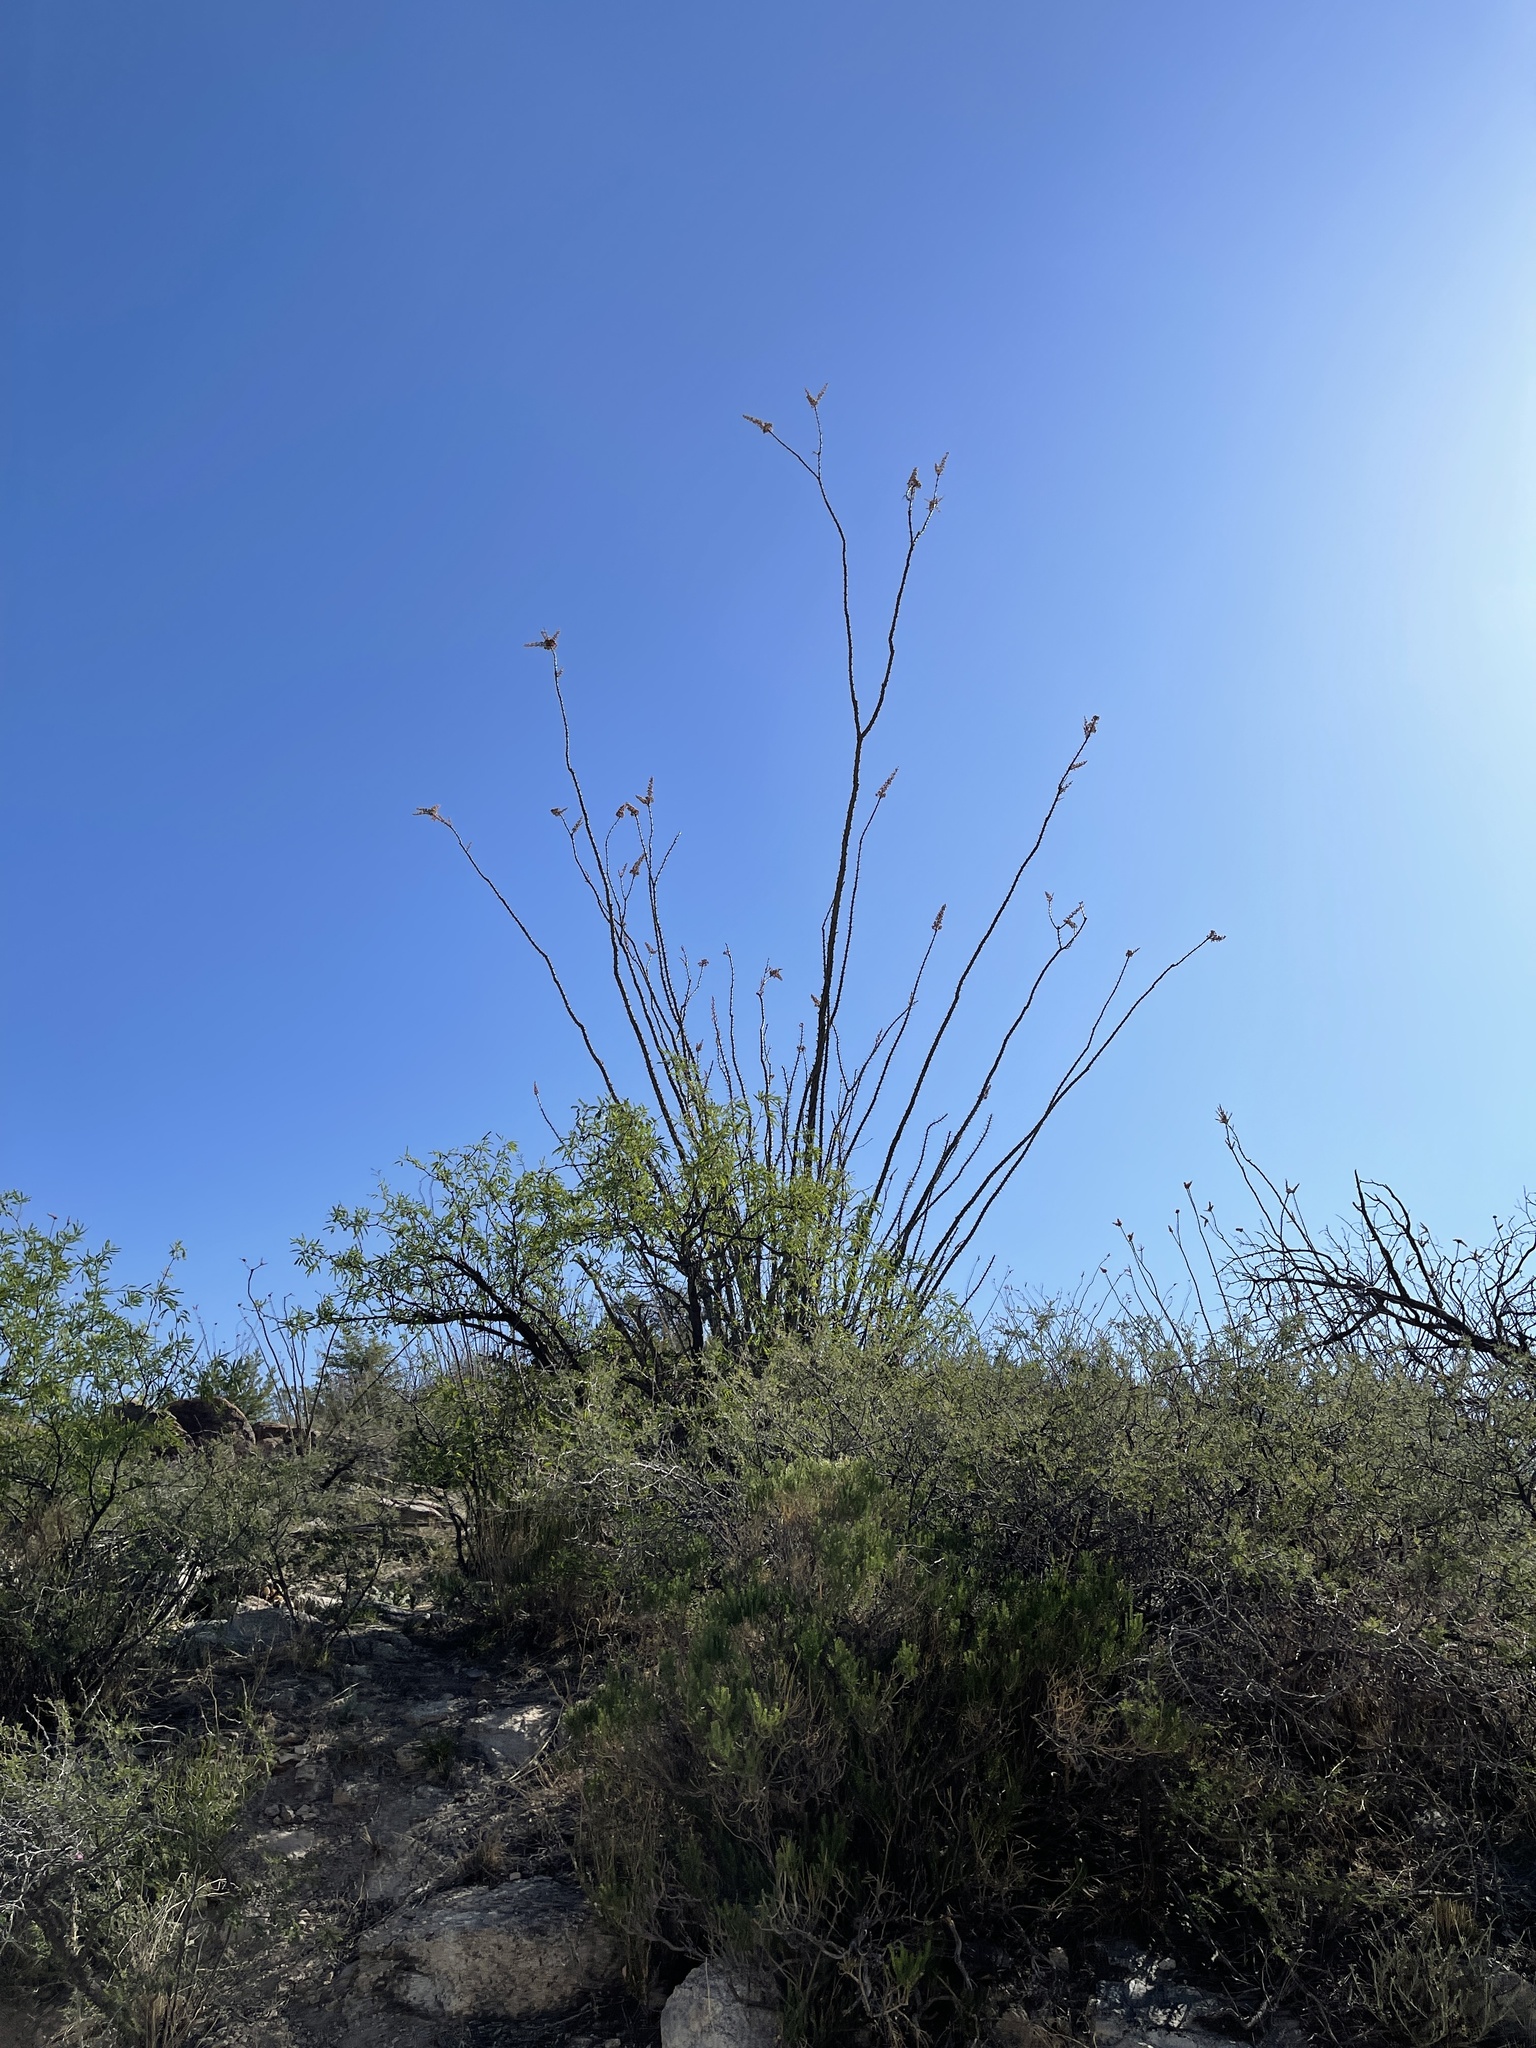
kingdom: Plantae
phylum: Tracheophyta
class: Magnoliopsida
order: Ericales
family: Fouquieriaceae
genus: Fouquieria
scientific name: Fouquieria splendens
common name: Vine-cactus
